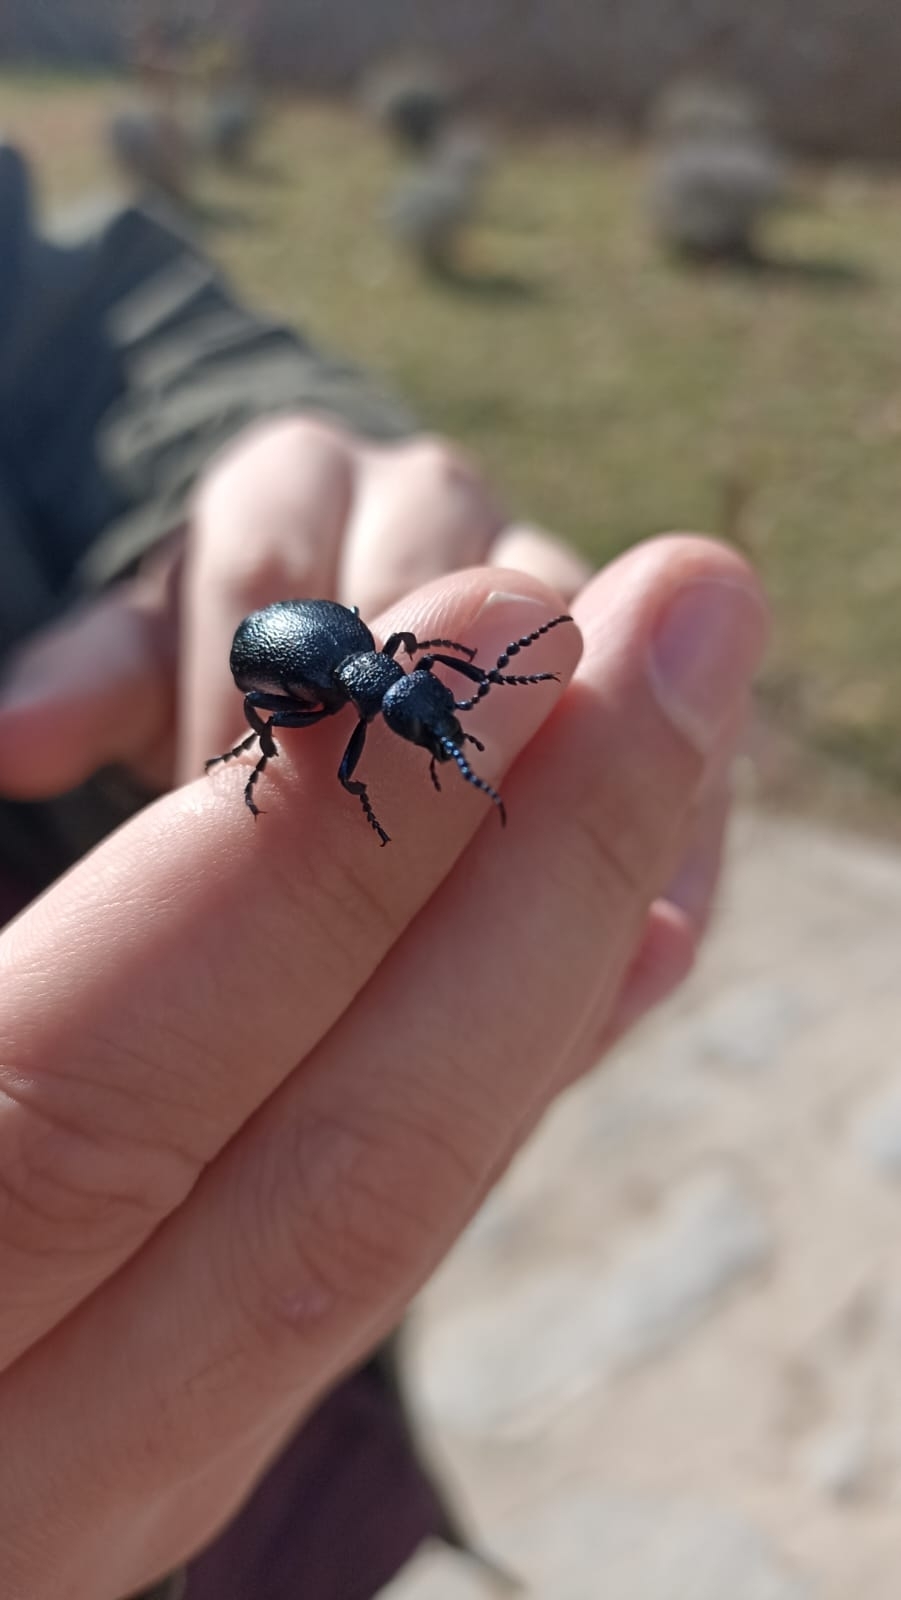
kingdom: Animalia
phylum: Arthropoda
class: Insecta
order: Coleoptera
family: Meloidae
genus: Meloe
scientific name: Meloe proscarabaeus
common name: Black oil-beetle
